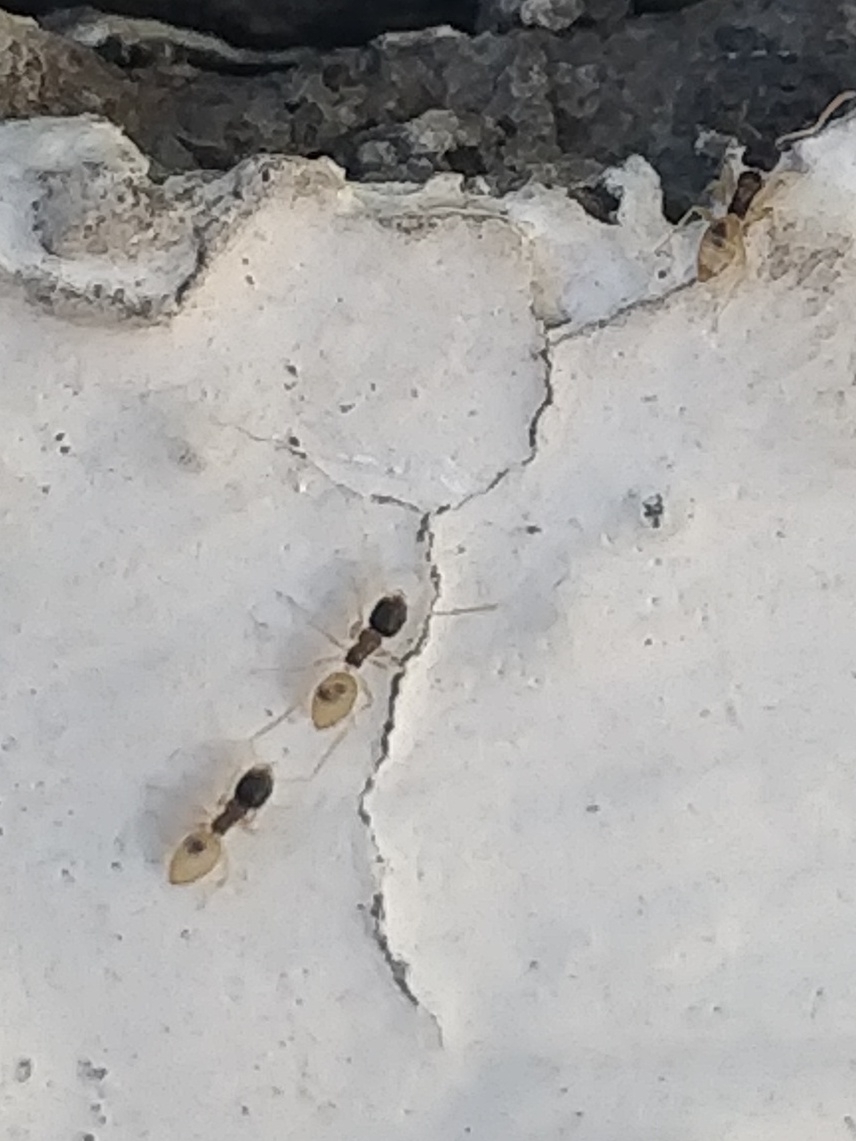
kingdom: Animalia
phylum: Arthropoda
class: Insecta
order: Hymenoptera
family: Formicidae
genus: Tapinoma
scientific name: Tapinoma melanocephalum
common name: Ghost ant
